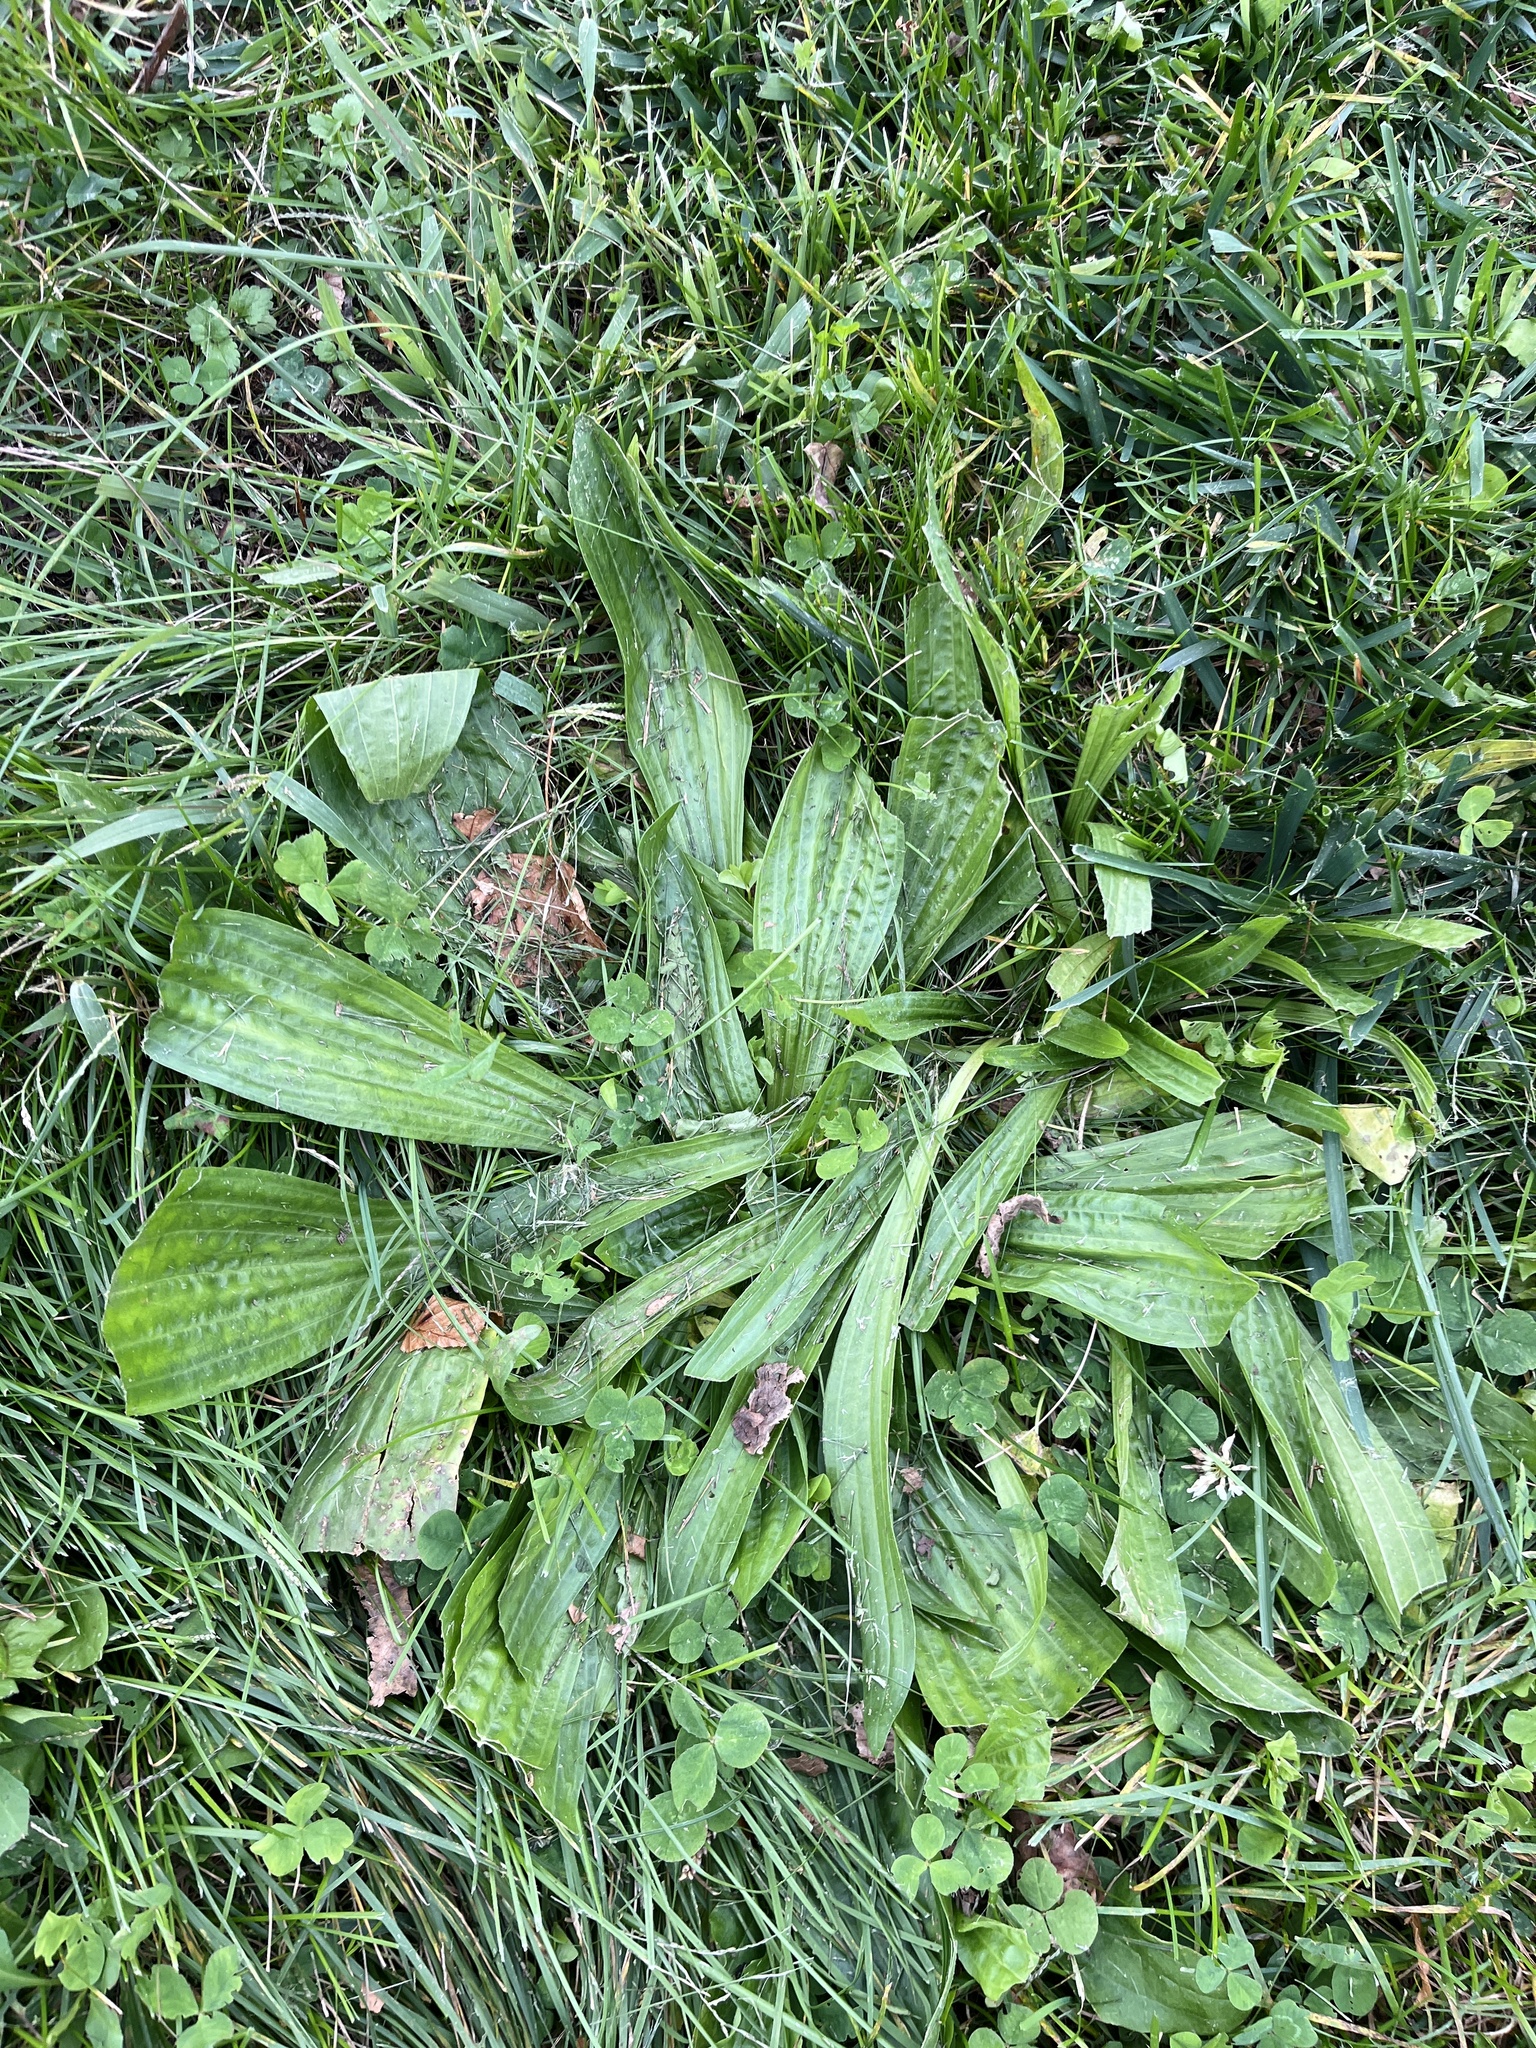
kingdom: Plantae
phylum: Tracheophyta
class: Magnoliopsida
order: Lamiales
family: Plantaginaceae
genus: Plantago
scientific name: Plantago lanceolata
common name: Ribwort plantain
